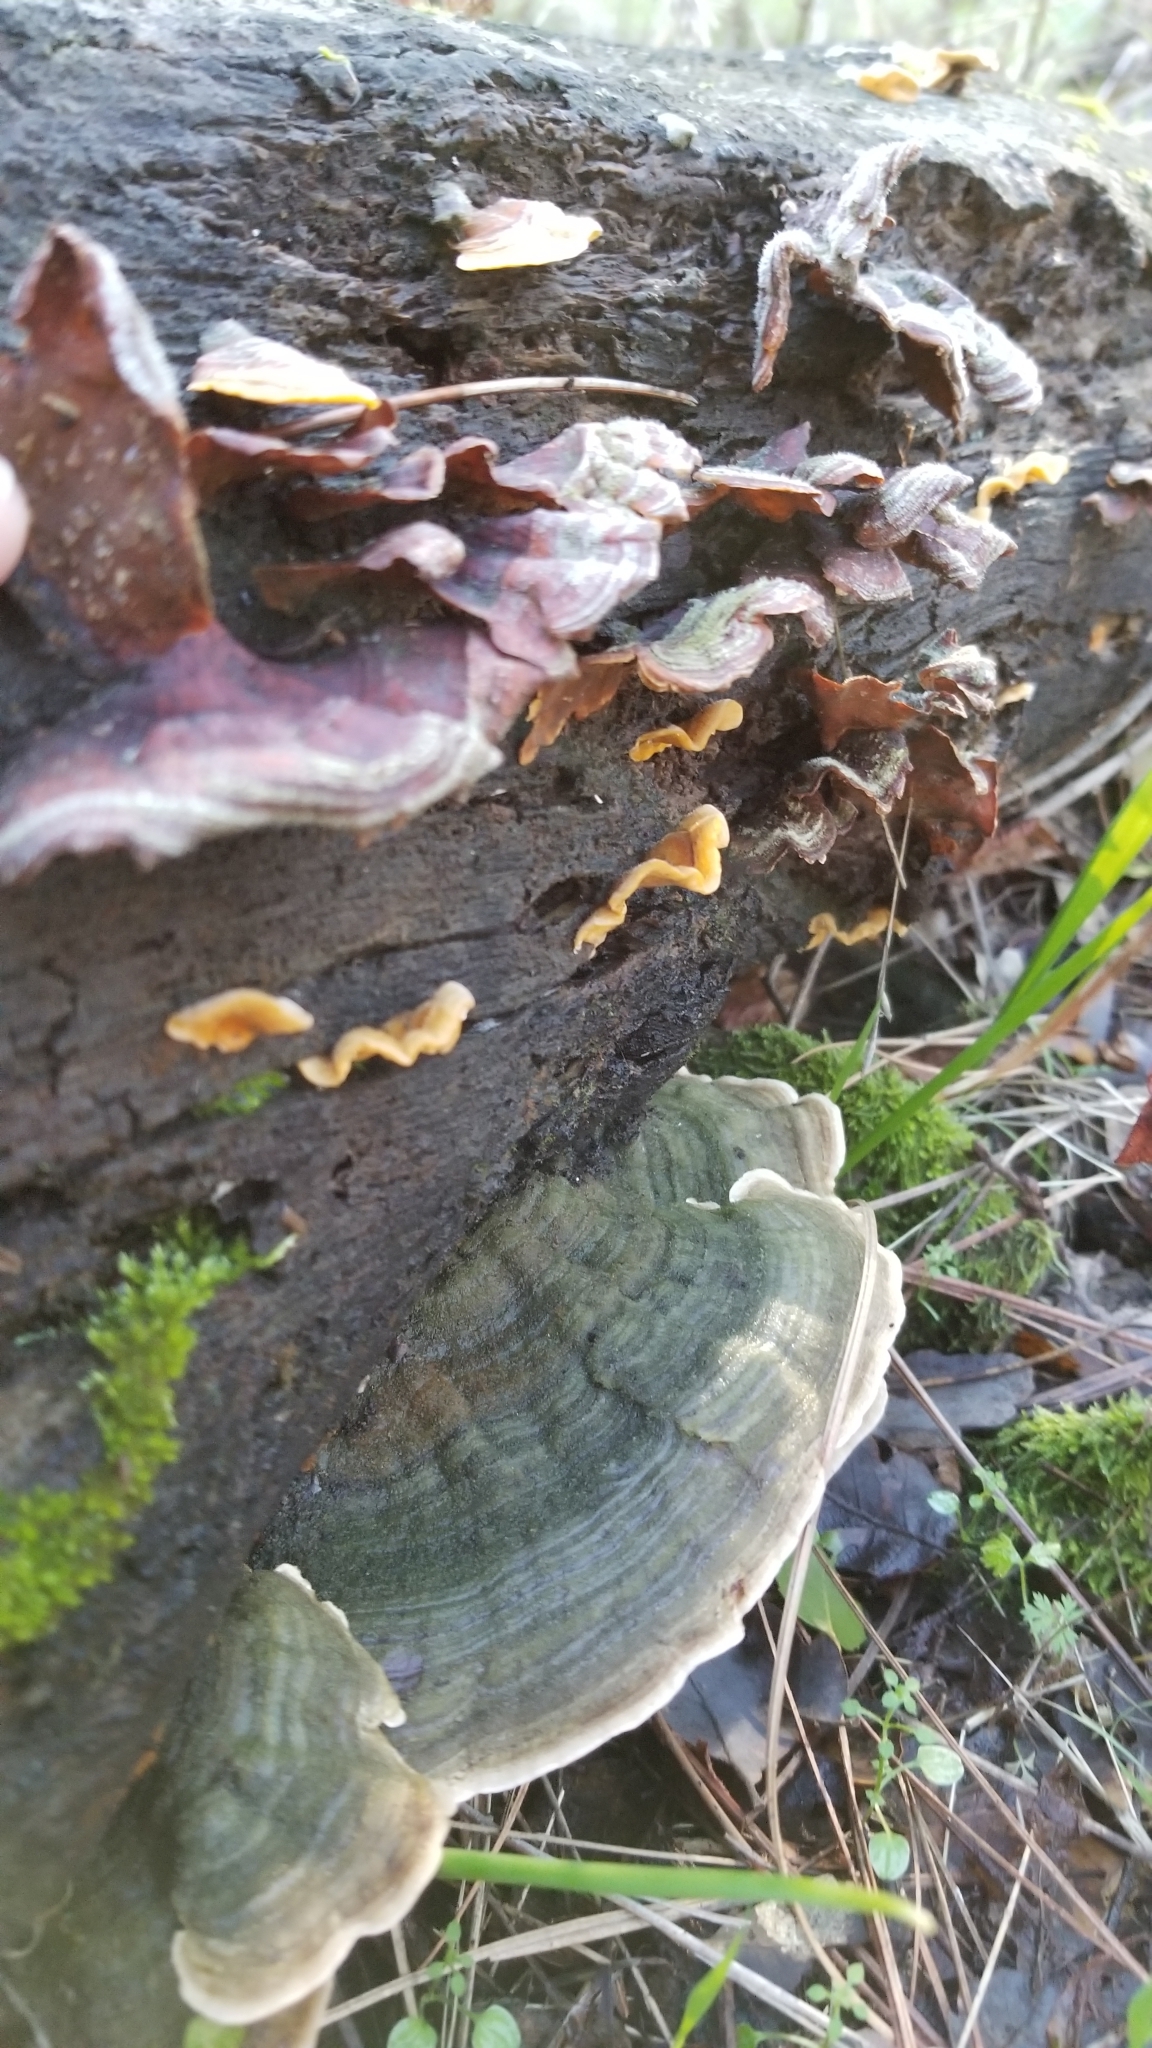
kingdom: Fungi
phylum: Basidiomycota
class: Agaricomycetes
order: Russulales
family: Stereaceae
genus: Stereum
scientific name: Stereum hirsutum
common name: Hairy curtain crust
